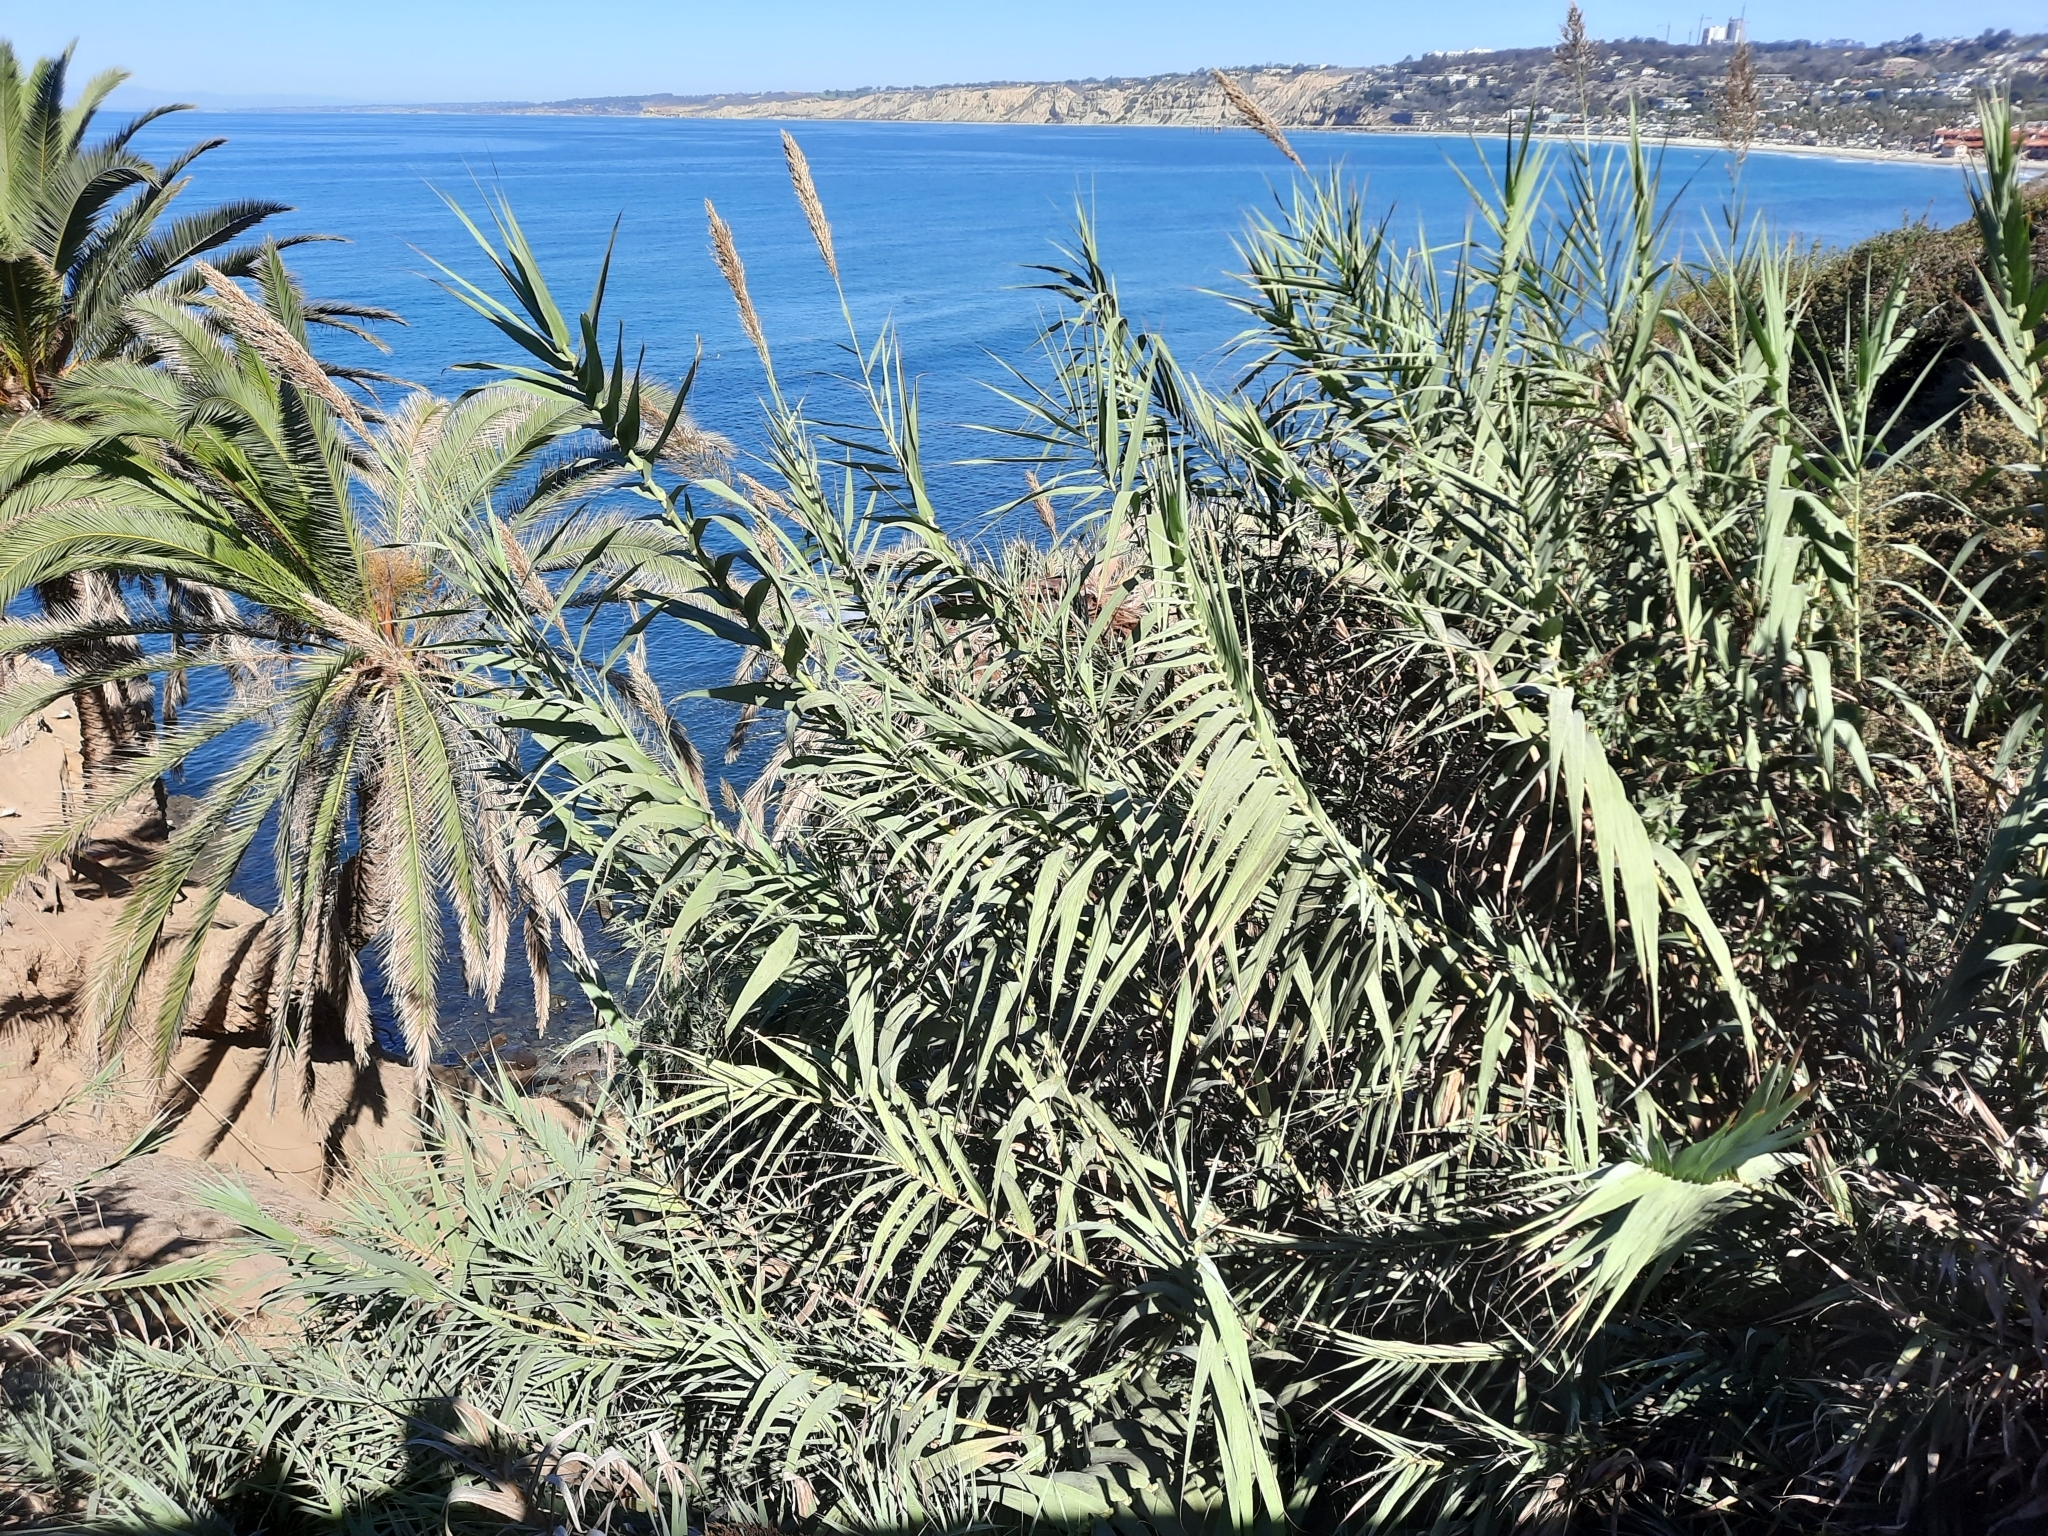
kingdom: Plantae
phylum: Tracheophyta
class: Liliopsida
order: Poales
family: Poaceae
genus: Arundo
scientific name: Arundo donax
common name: Giant reed
